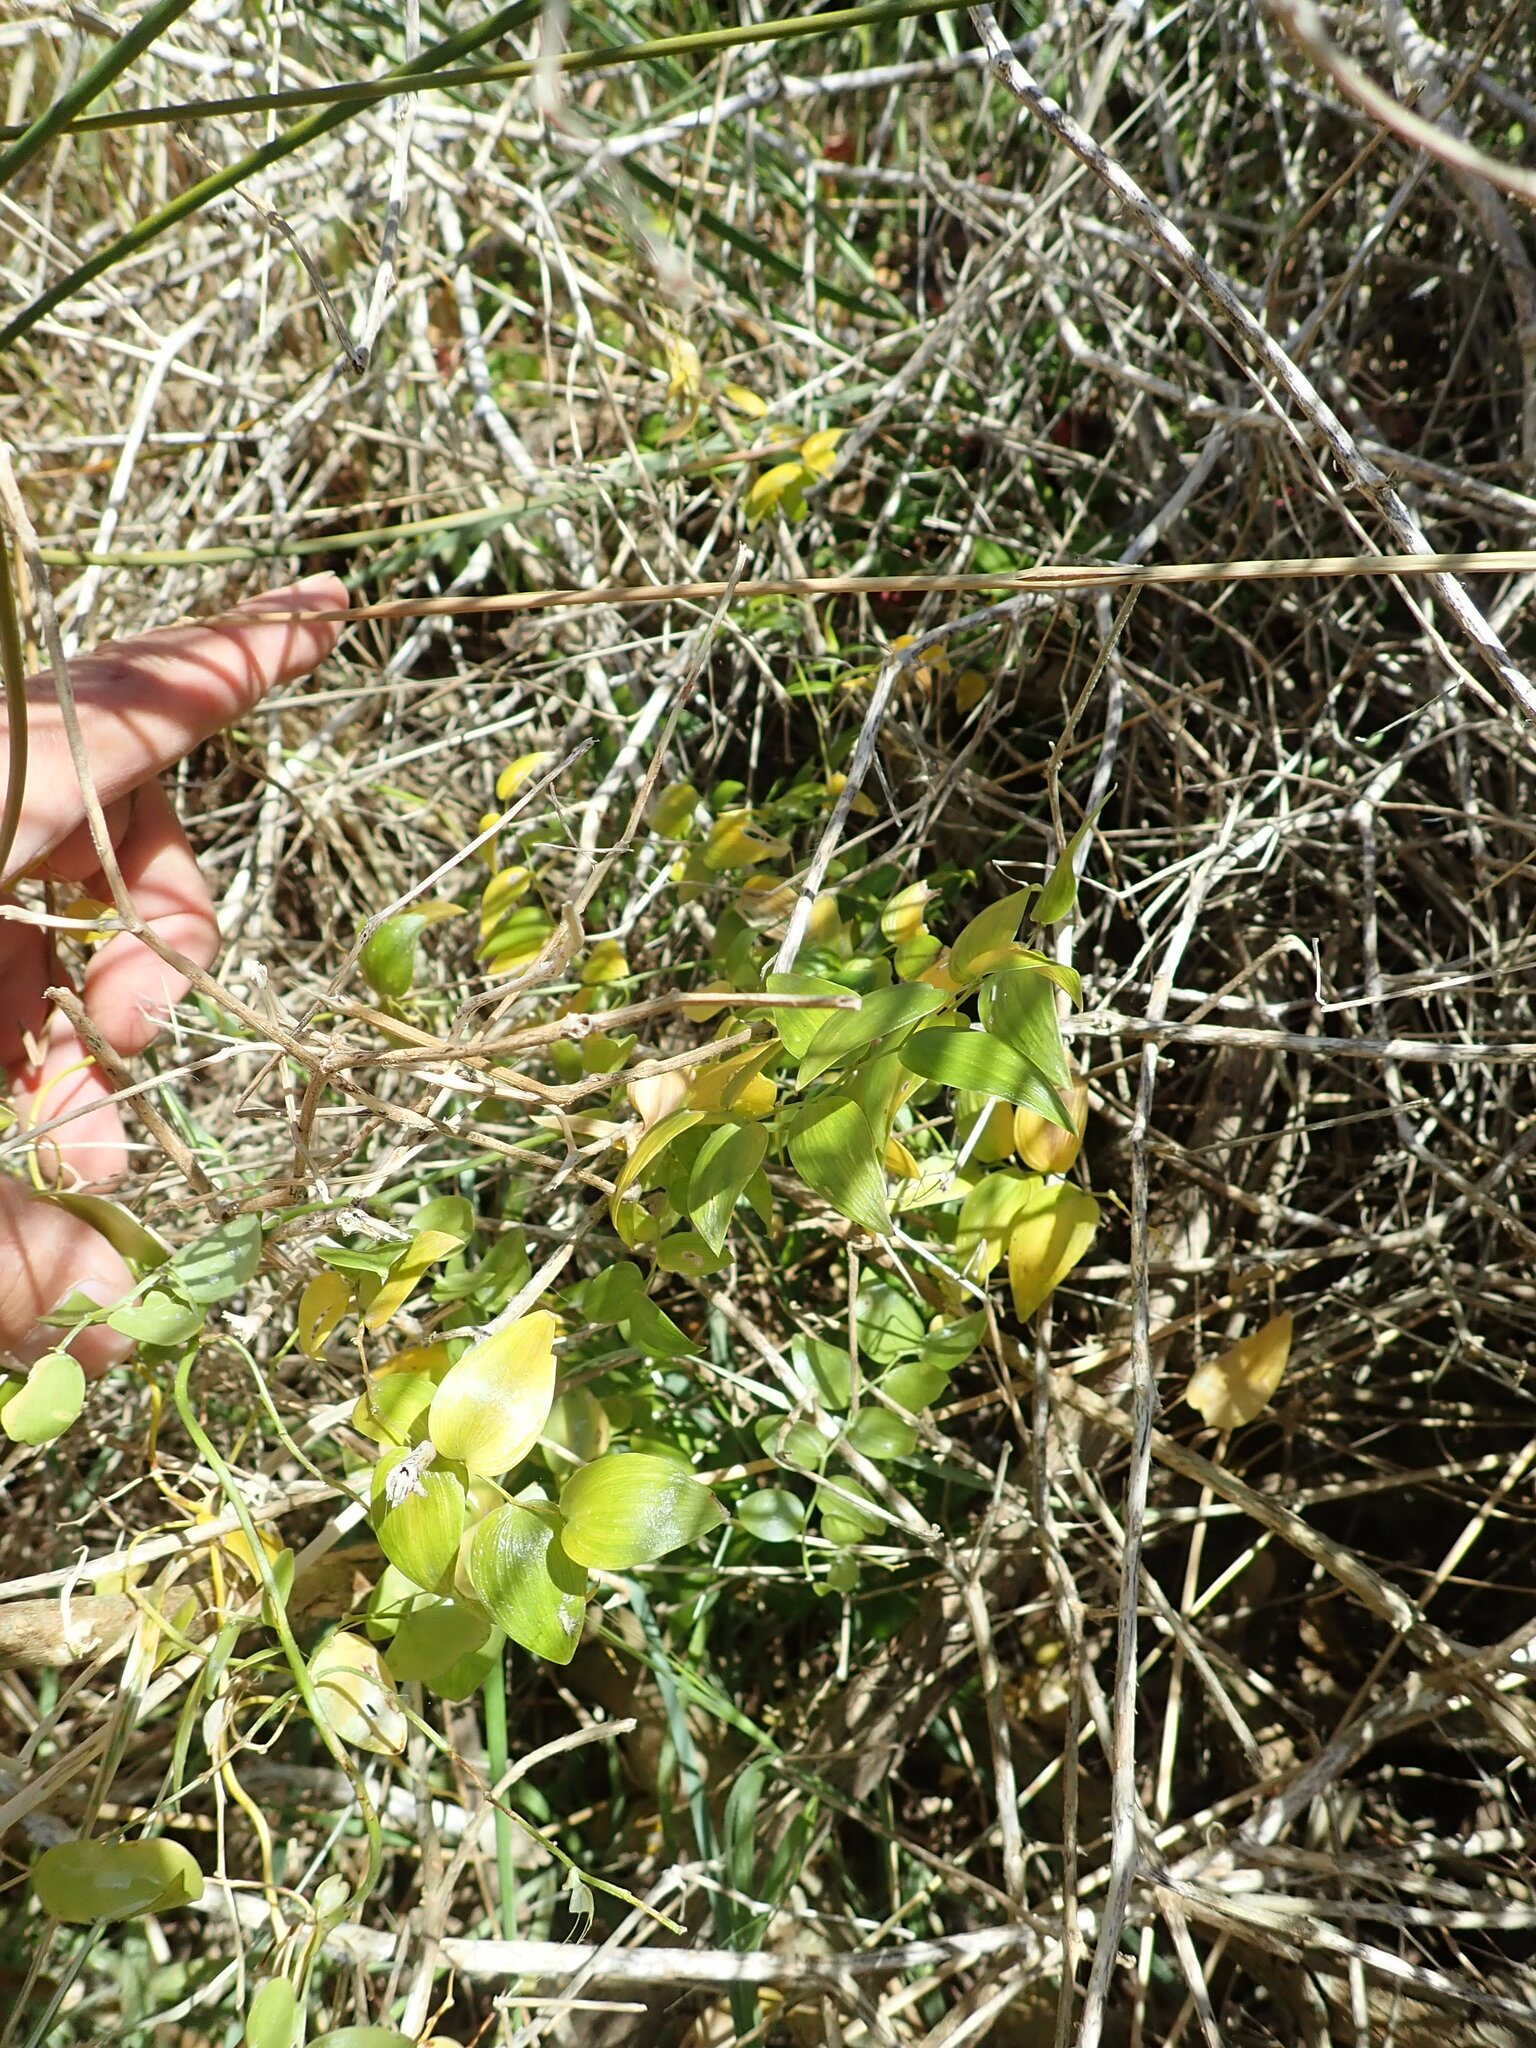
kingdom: Plantae
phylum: Tracheophyta
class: Liliopsida
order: Asparagales
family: Asparagaceae
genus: Asparagus
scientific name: Asparagus asparagoides
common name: African asparagus fern
